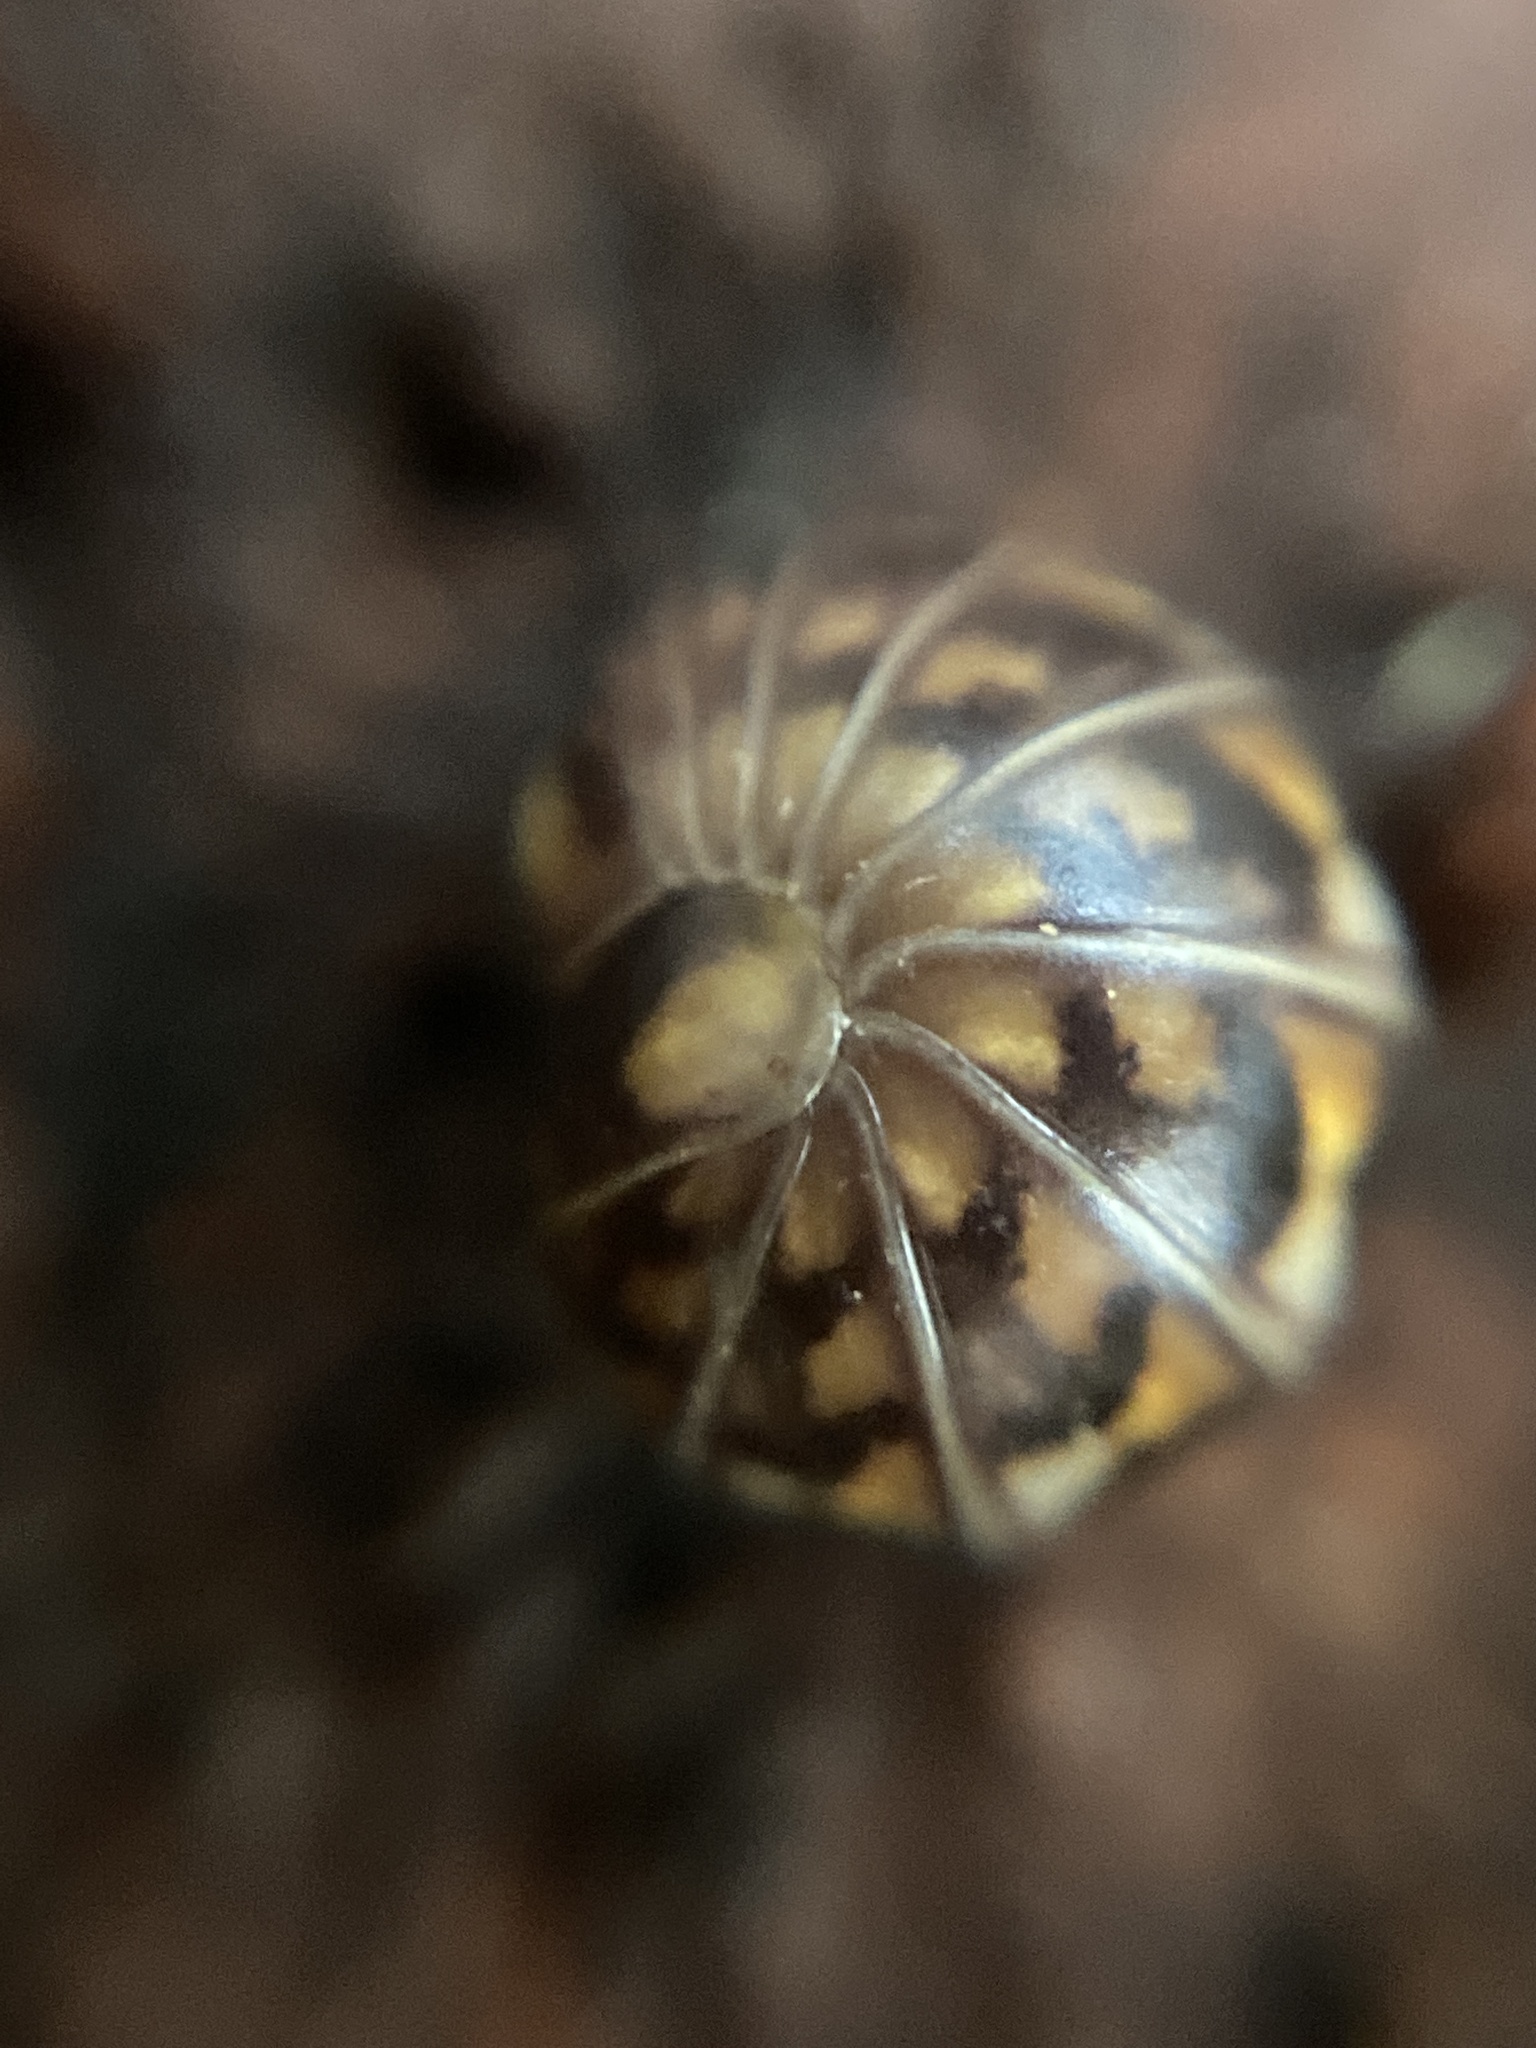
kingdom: Animalia
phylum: Arthropoda
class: Diplopoda
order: Glomerida
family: Glomeridae
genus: Glomeris
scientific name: Glomeris hexasticha
